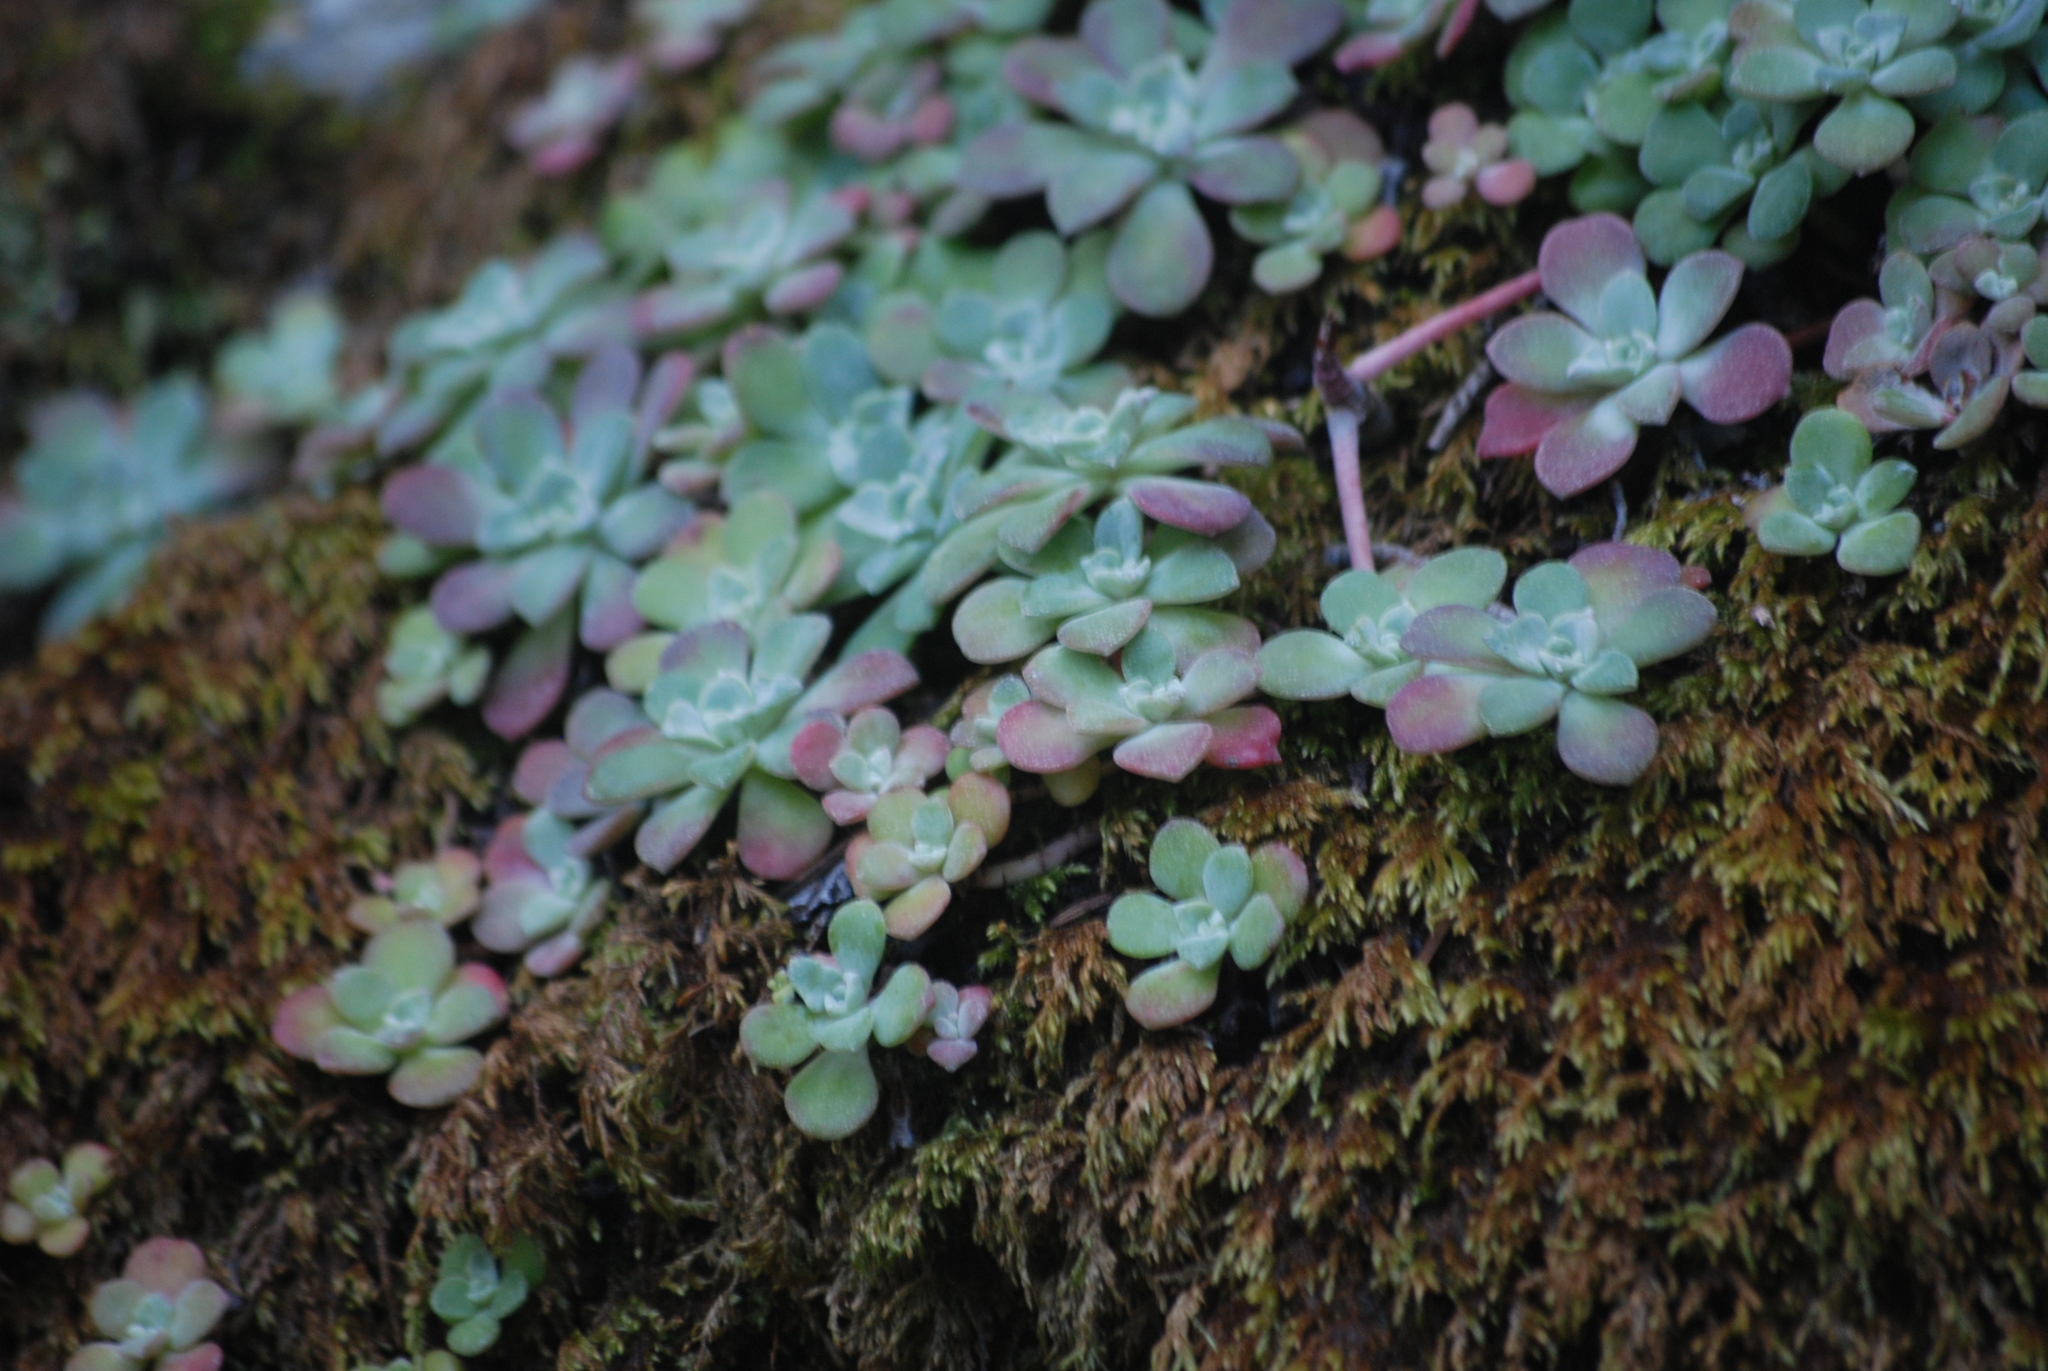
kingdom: Plantae
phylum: Tracheophyta
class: Magnoliopsida
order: Saxifragales
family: Crassulaceae
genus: Sedum
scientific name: Sedum spathulifolium
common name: Colorado stonecrop
